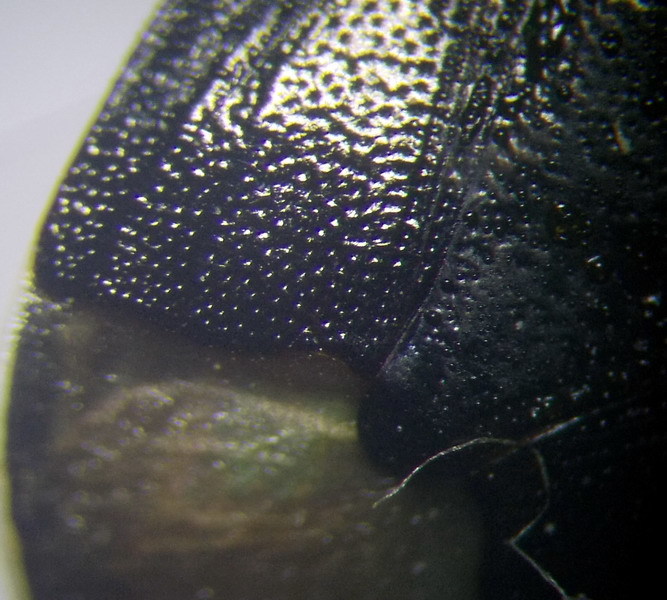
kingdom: Animalia
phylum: Arthropoda
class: Insecta
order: Hemiptera
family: Cydnidae
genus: Sehirus
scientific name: Sehirus luctuosus
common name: Forget-me-not shieldbug
